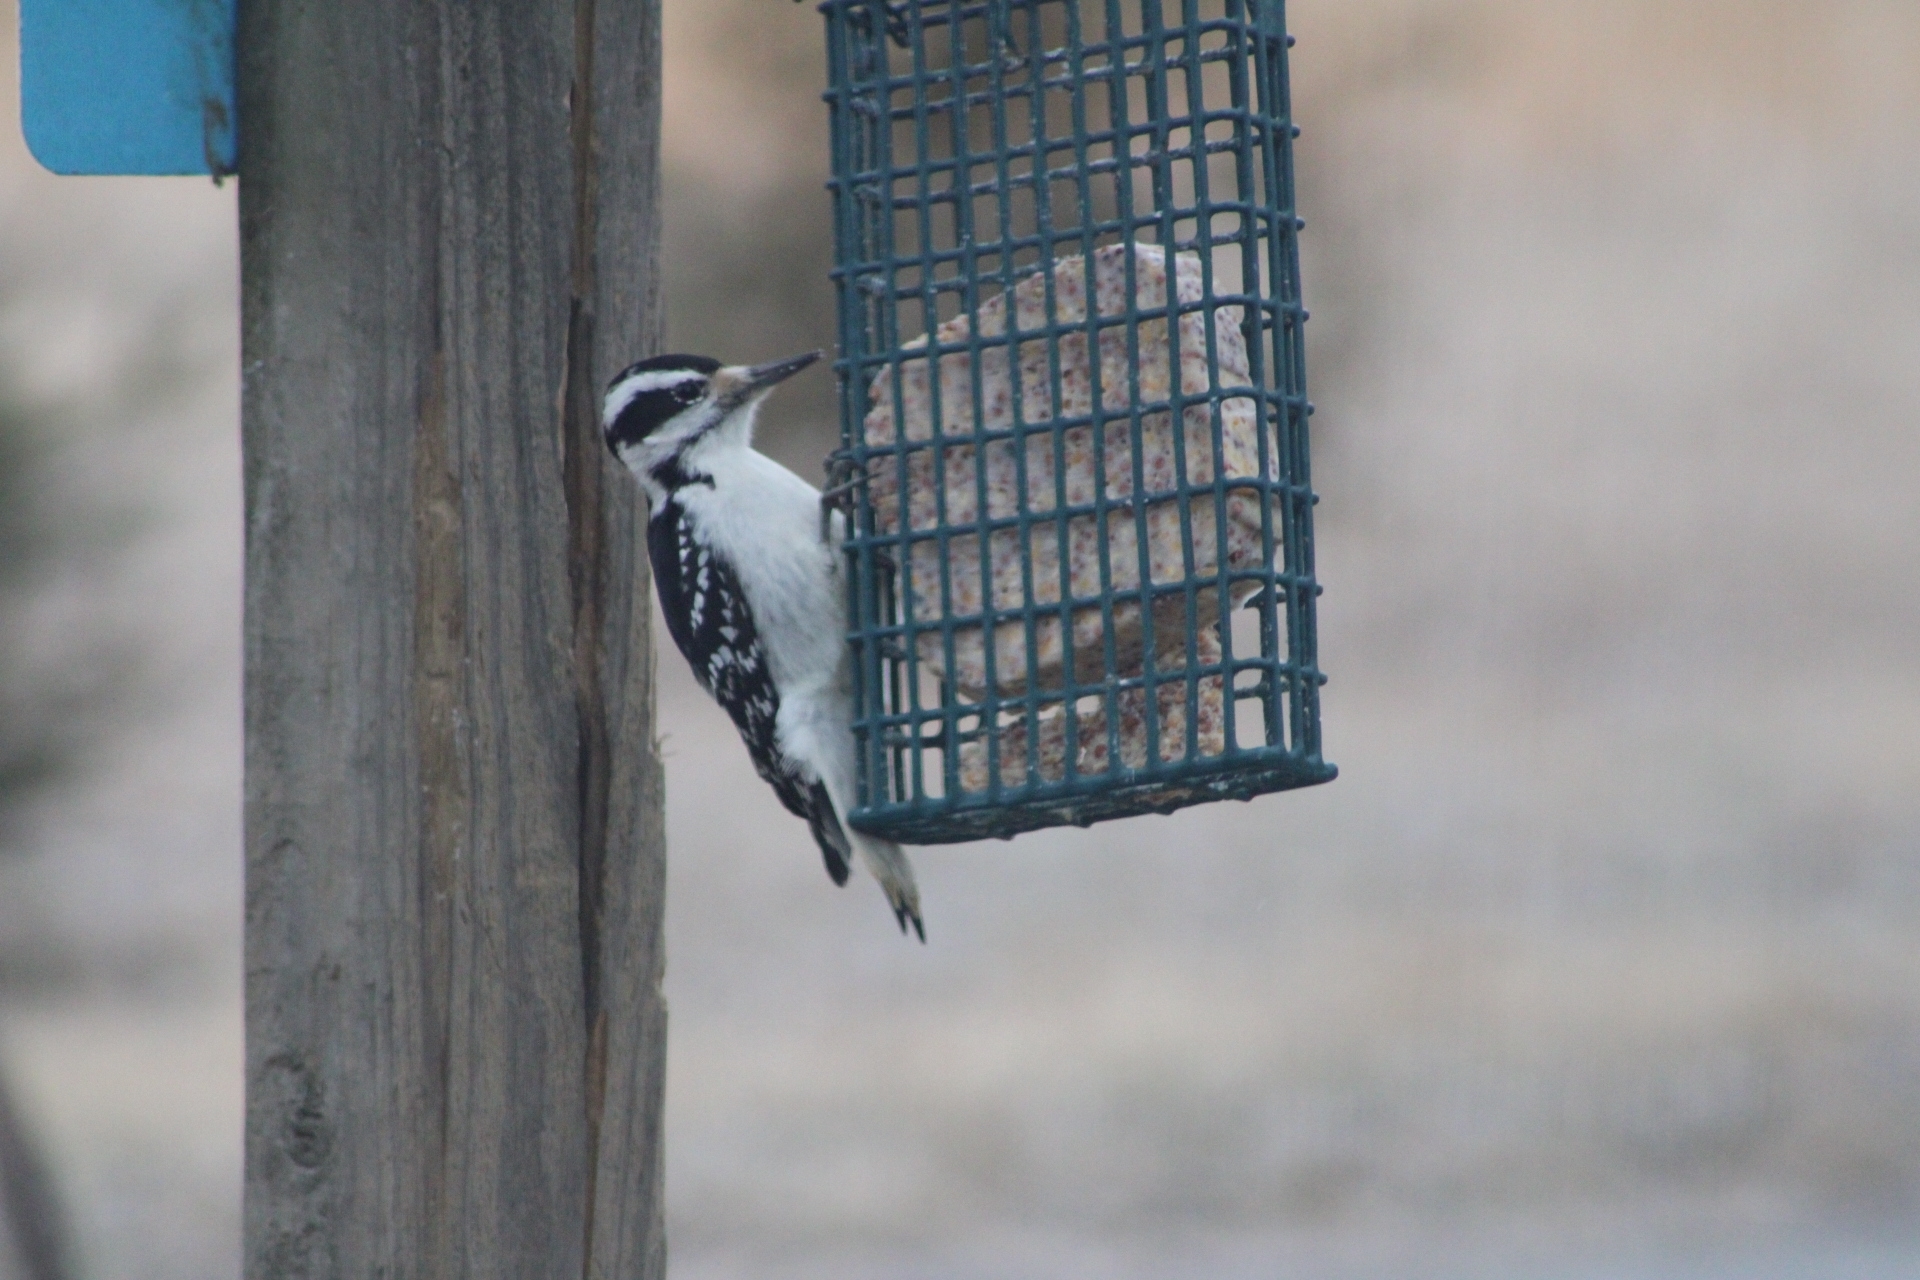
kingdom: Animalia
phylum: Chordata
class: Aves
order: Piciformes
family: Picidae
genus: Leuconotopicus
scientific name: Leuconotopicus villosus
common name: Hairy woodpecker
